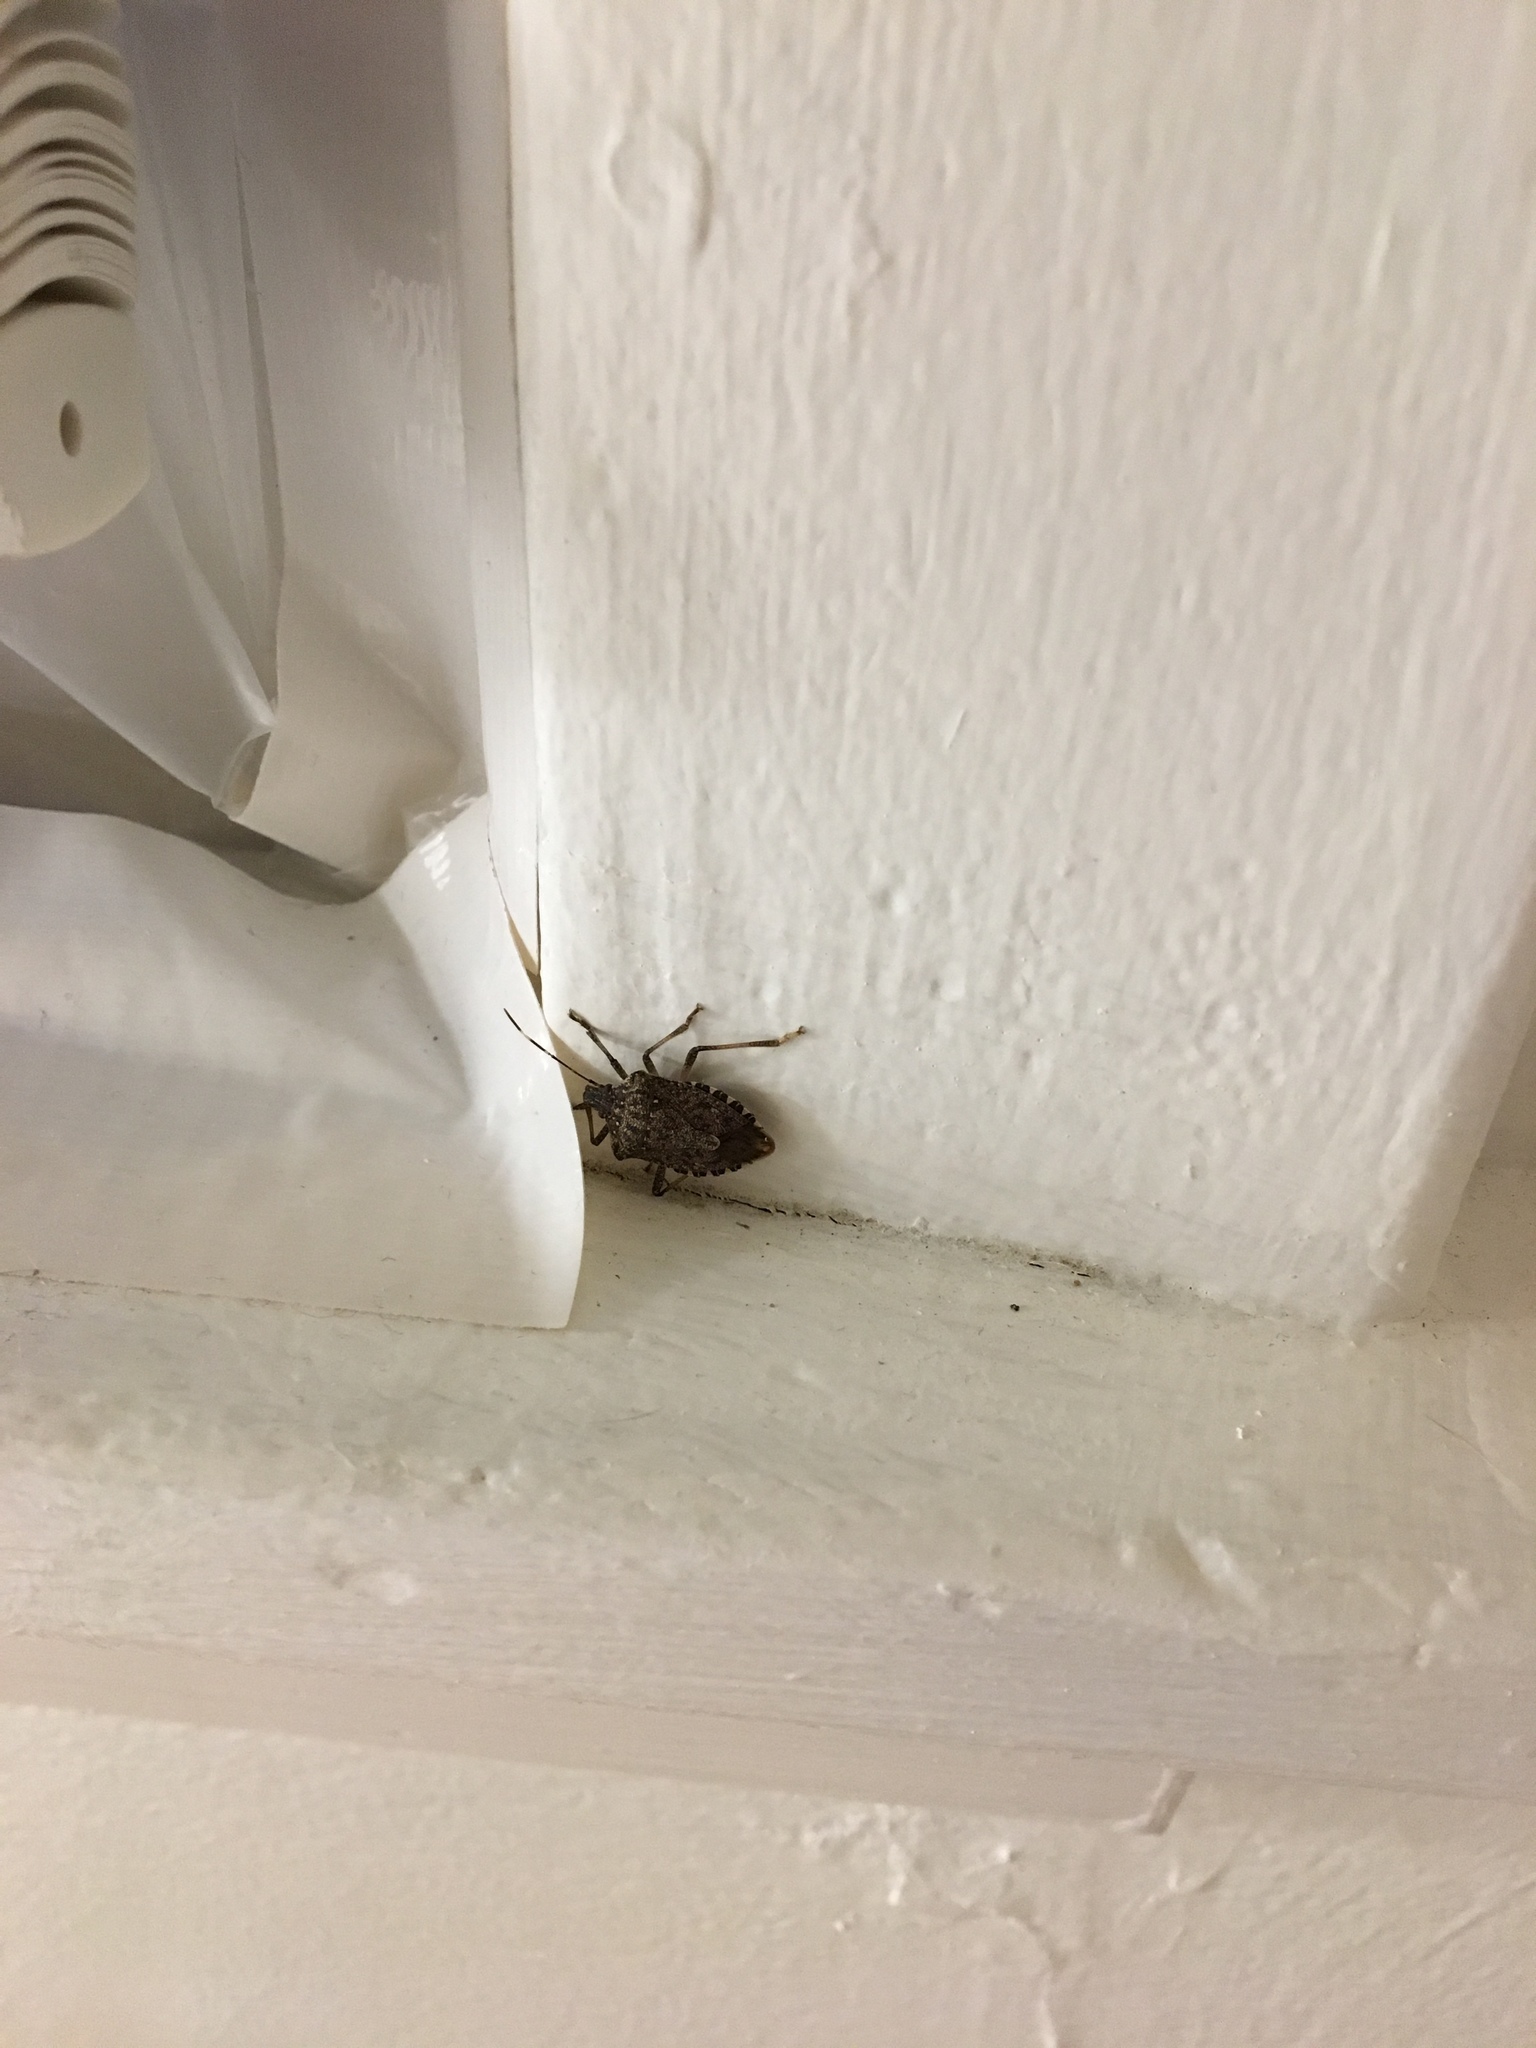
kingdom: Animalia
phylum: Arthropoda
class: Insecta
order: Hemiptera
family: Pentatomidae
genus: Halyomorpha
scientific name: Halyomorpha halys
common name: Brown marmorated stink bug
